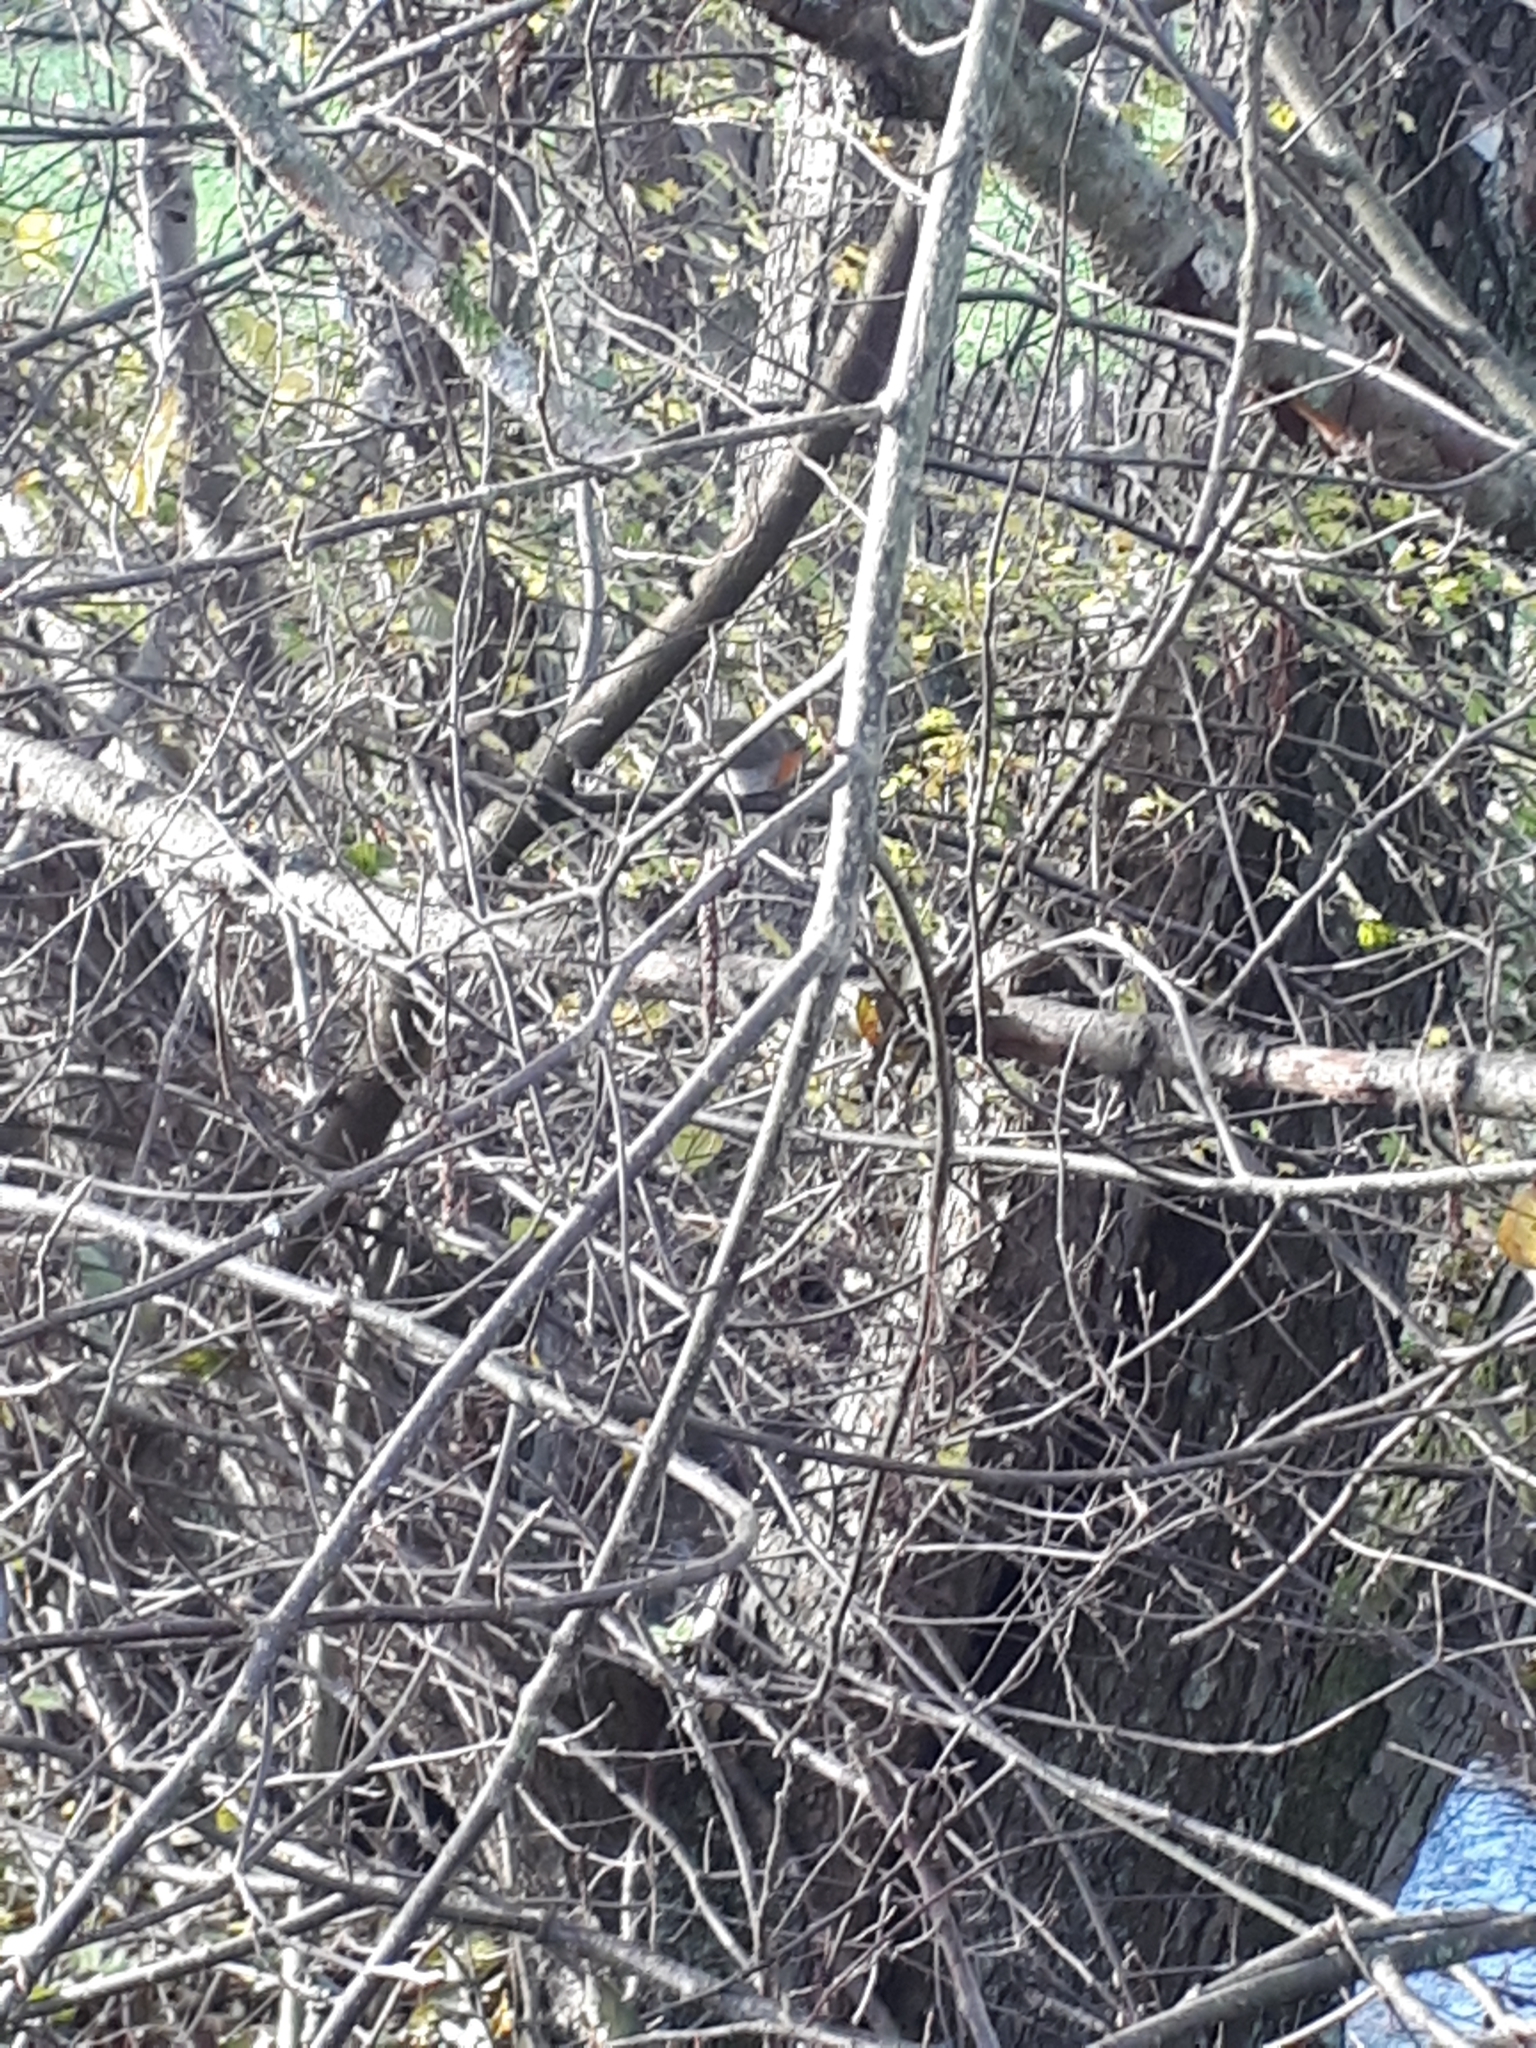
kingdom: Animalia
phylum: Chordata
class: Aves
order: Passeriformes
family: Muscicapidae
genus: Erithacus
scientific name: Erithacus rubecula
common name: European robin
